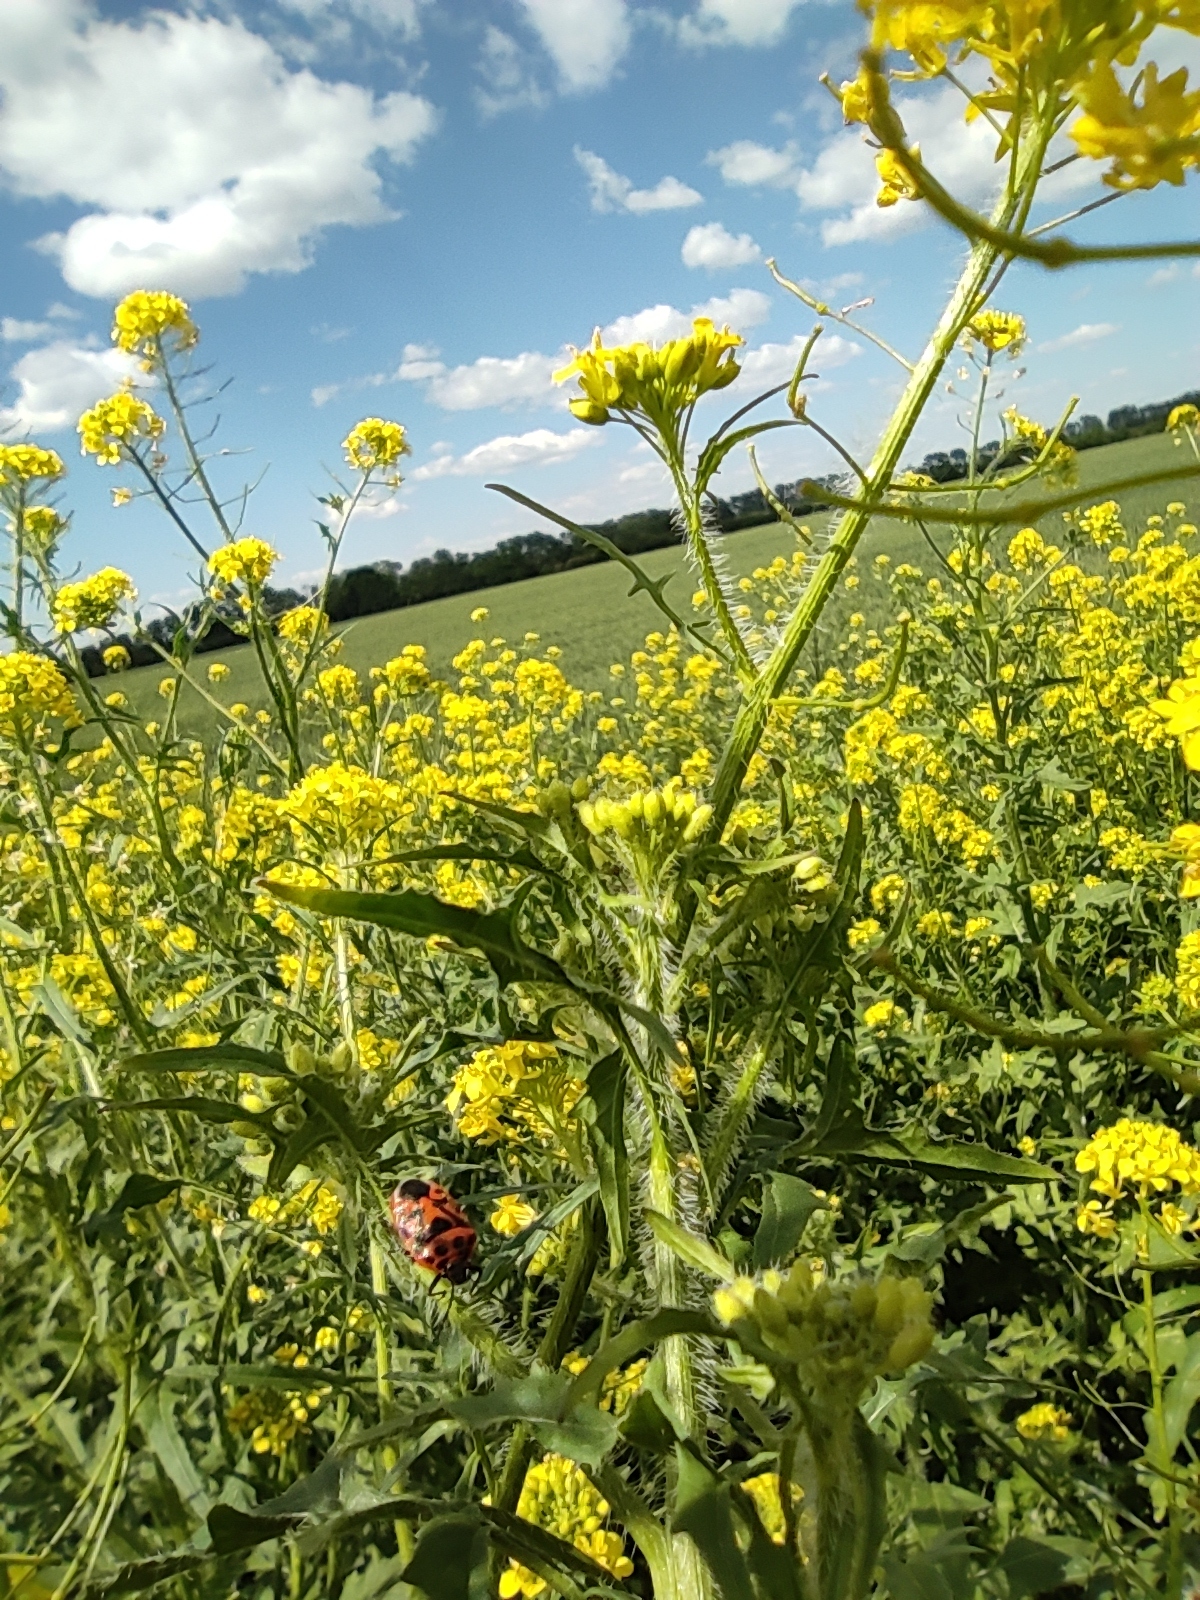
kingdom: Animalia
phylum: Arthropoda
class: Insecta
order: Hemiptera
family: Pentatomidae
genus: Eurydema
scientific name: Eurydema ornata
